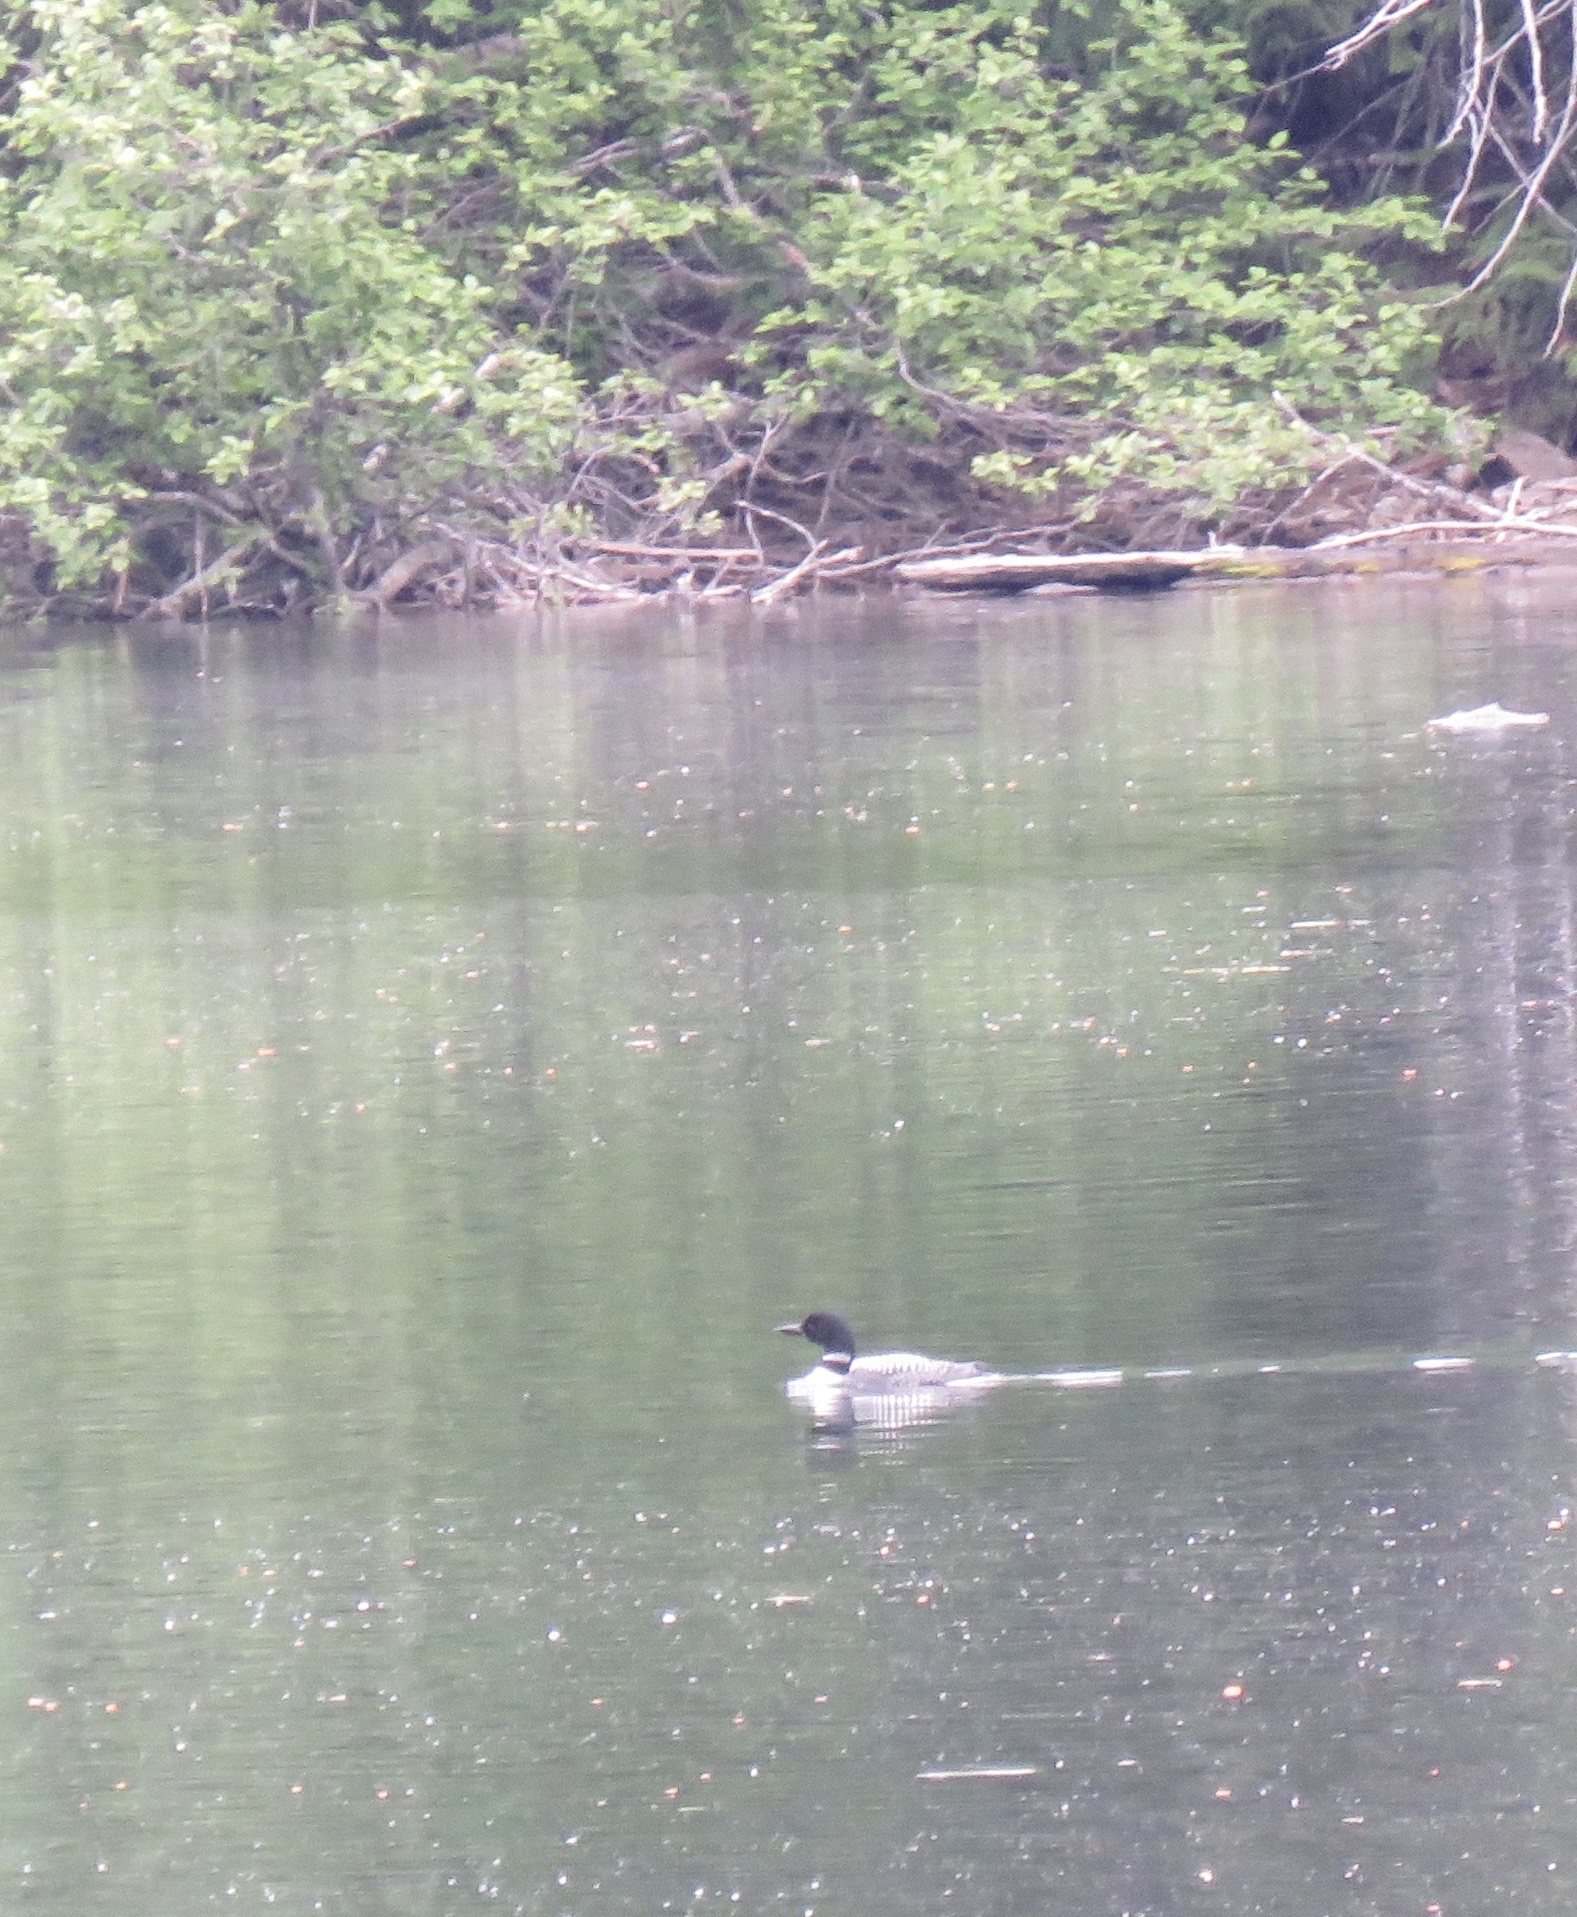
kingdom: Animalia
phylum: Chordata
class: Aves
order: Gaviiformes
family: Gaviidae
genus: Gavia
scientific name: Gavia immer
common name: Common loon
